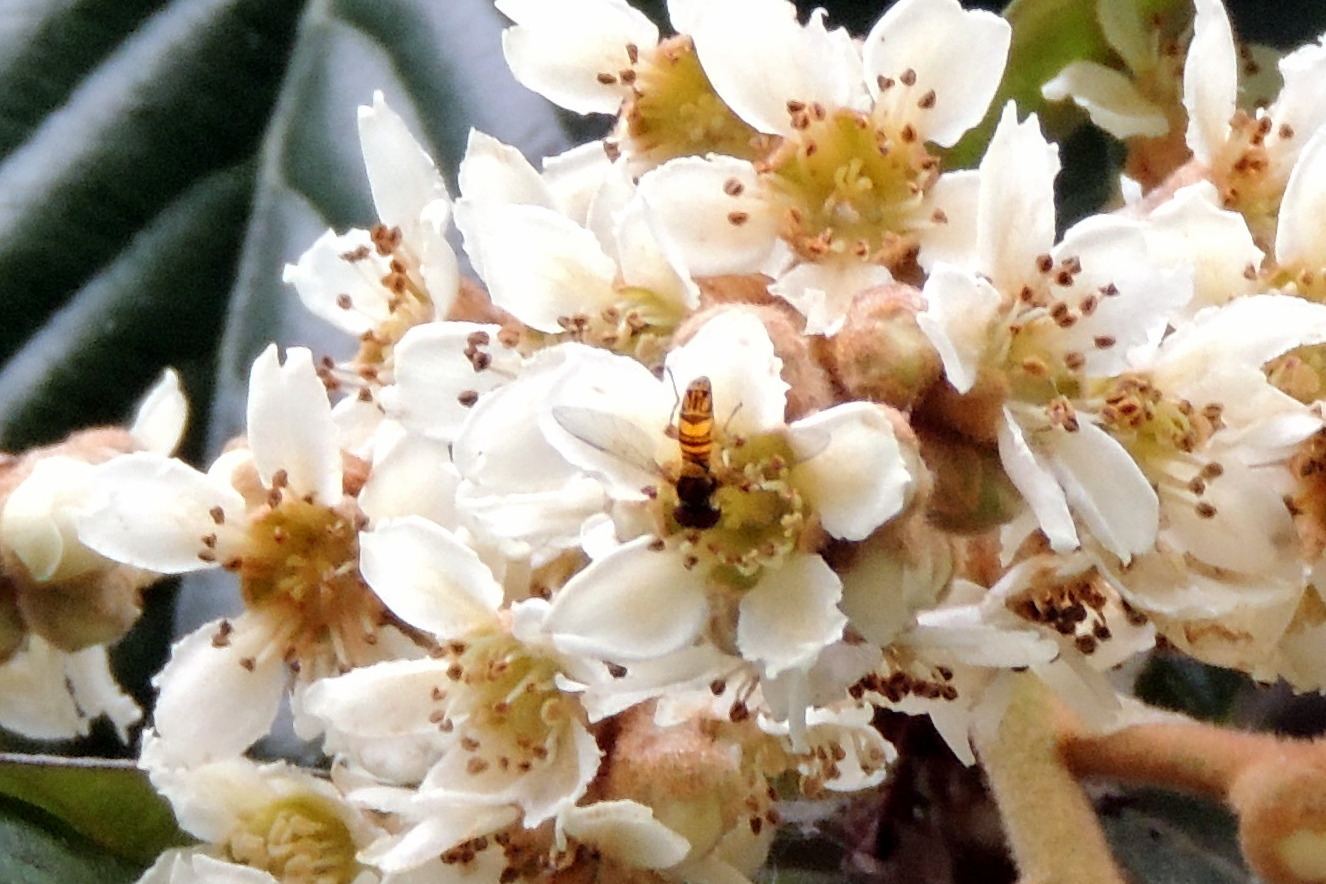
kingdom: Animalia
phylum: Arthropoda
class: Insecta
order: Diptera
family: Syrphidae
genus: Allograpta
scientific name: Allograpta obliqua
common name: Common oblique syrphid
